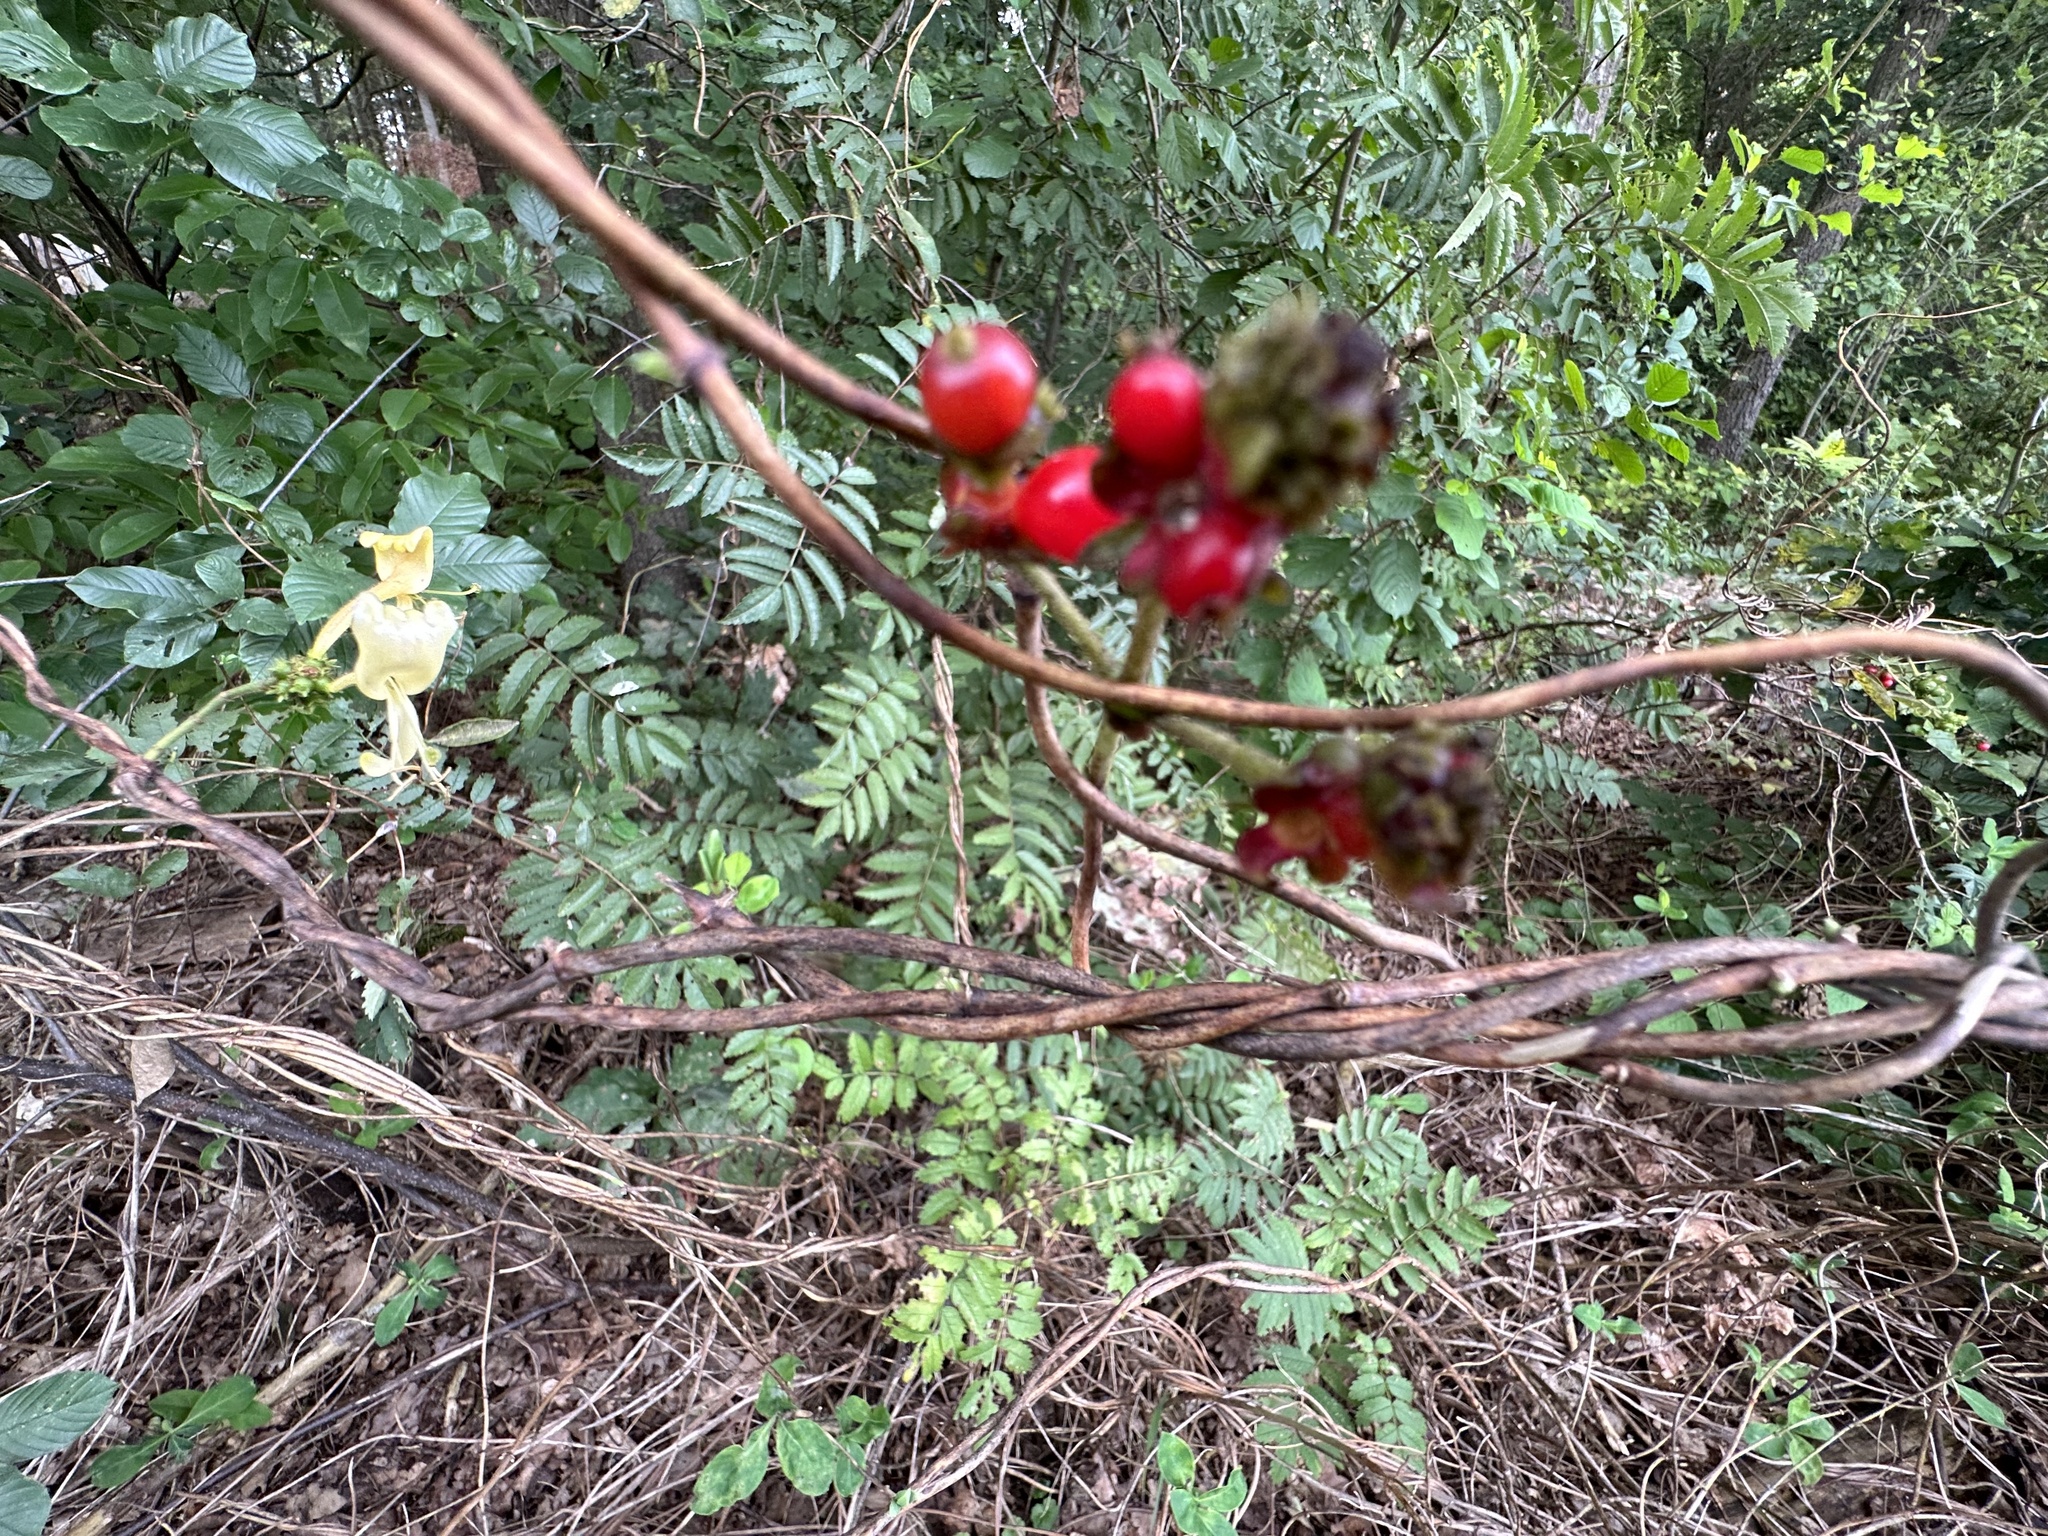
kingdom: Plantae
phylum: Tracheophyta
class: Magnoliopsida
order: Dipsacales
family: Caprifoliaceae
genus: Lonicera
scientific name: Lonicera periclymenum
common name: European honeysuckle
